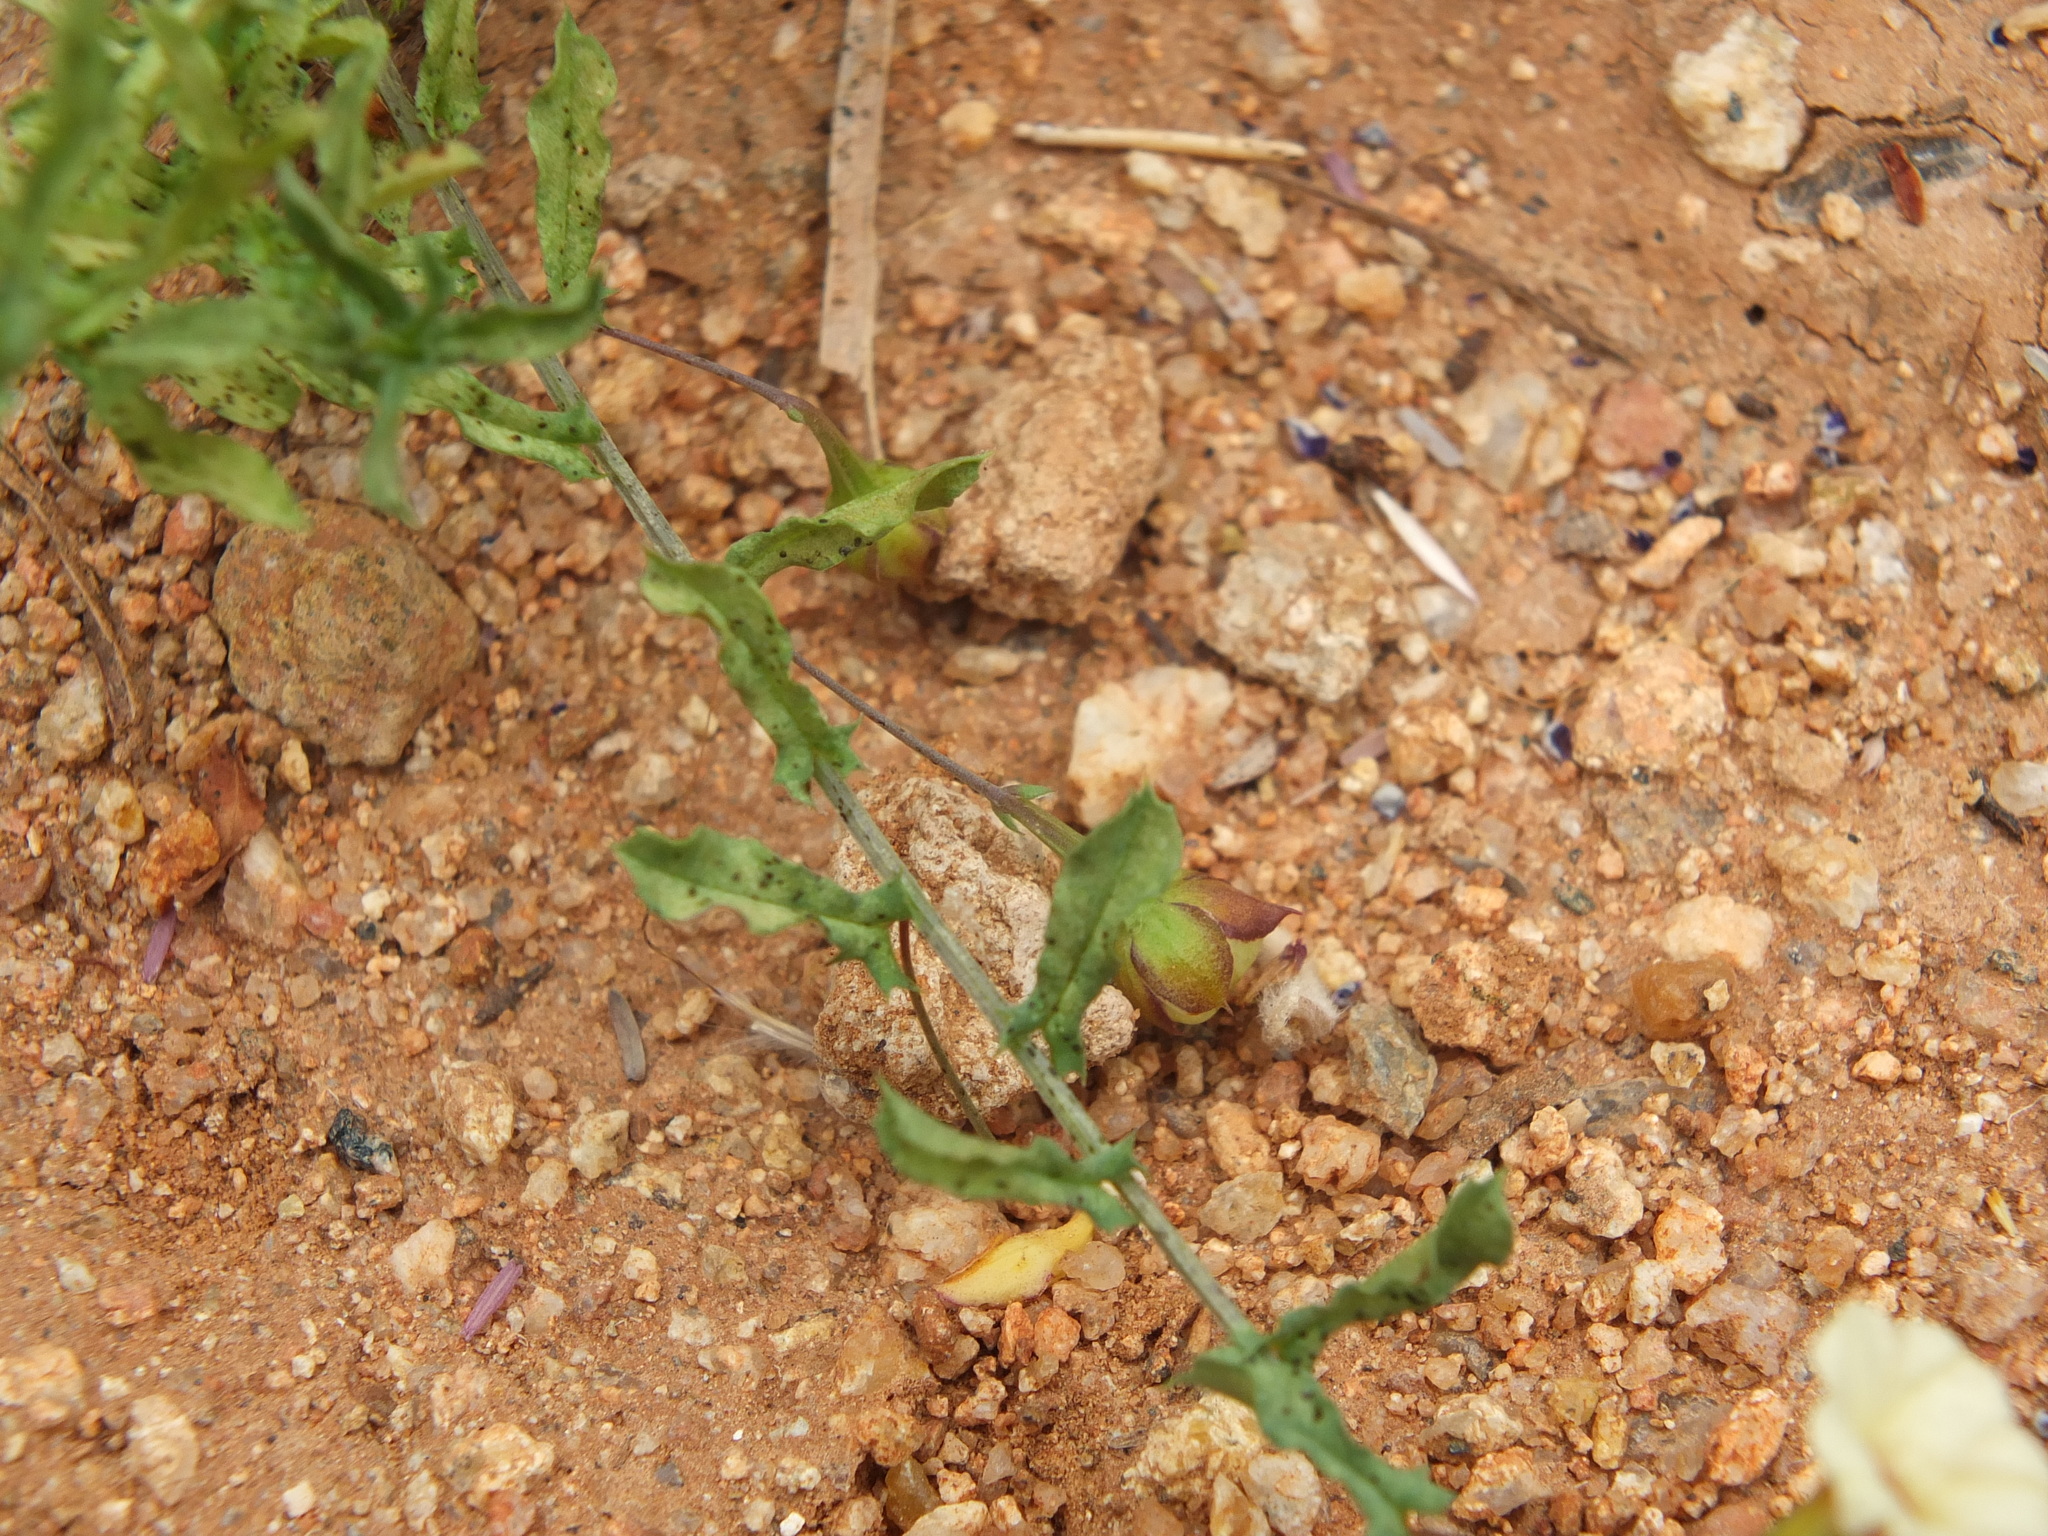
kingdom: Plantae
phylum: Tracheophyta
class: Magnoliopsida
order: Solanales
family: Convolvulaceae
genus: Xenostegia
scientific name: Xenostegia tridentata
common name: African morningvine
